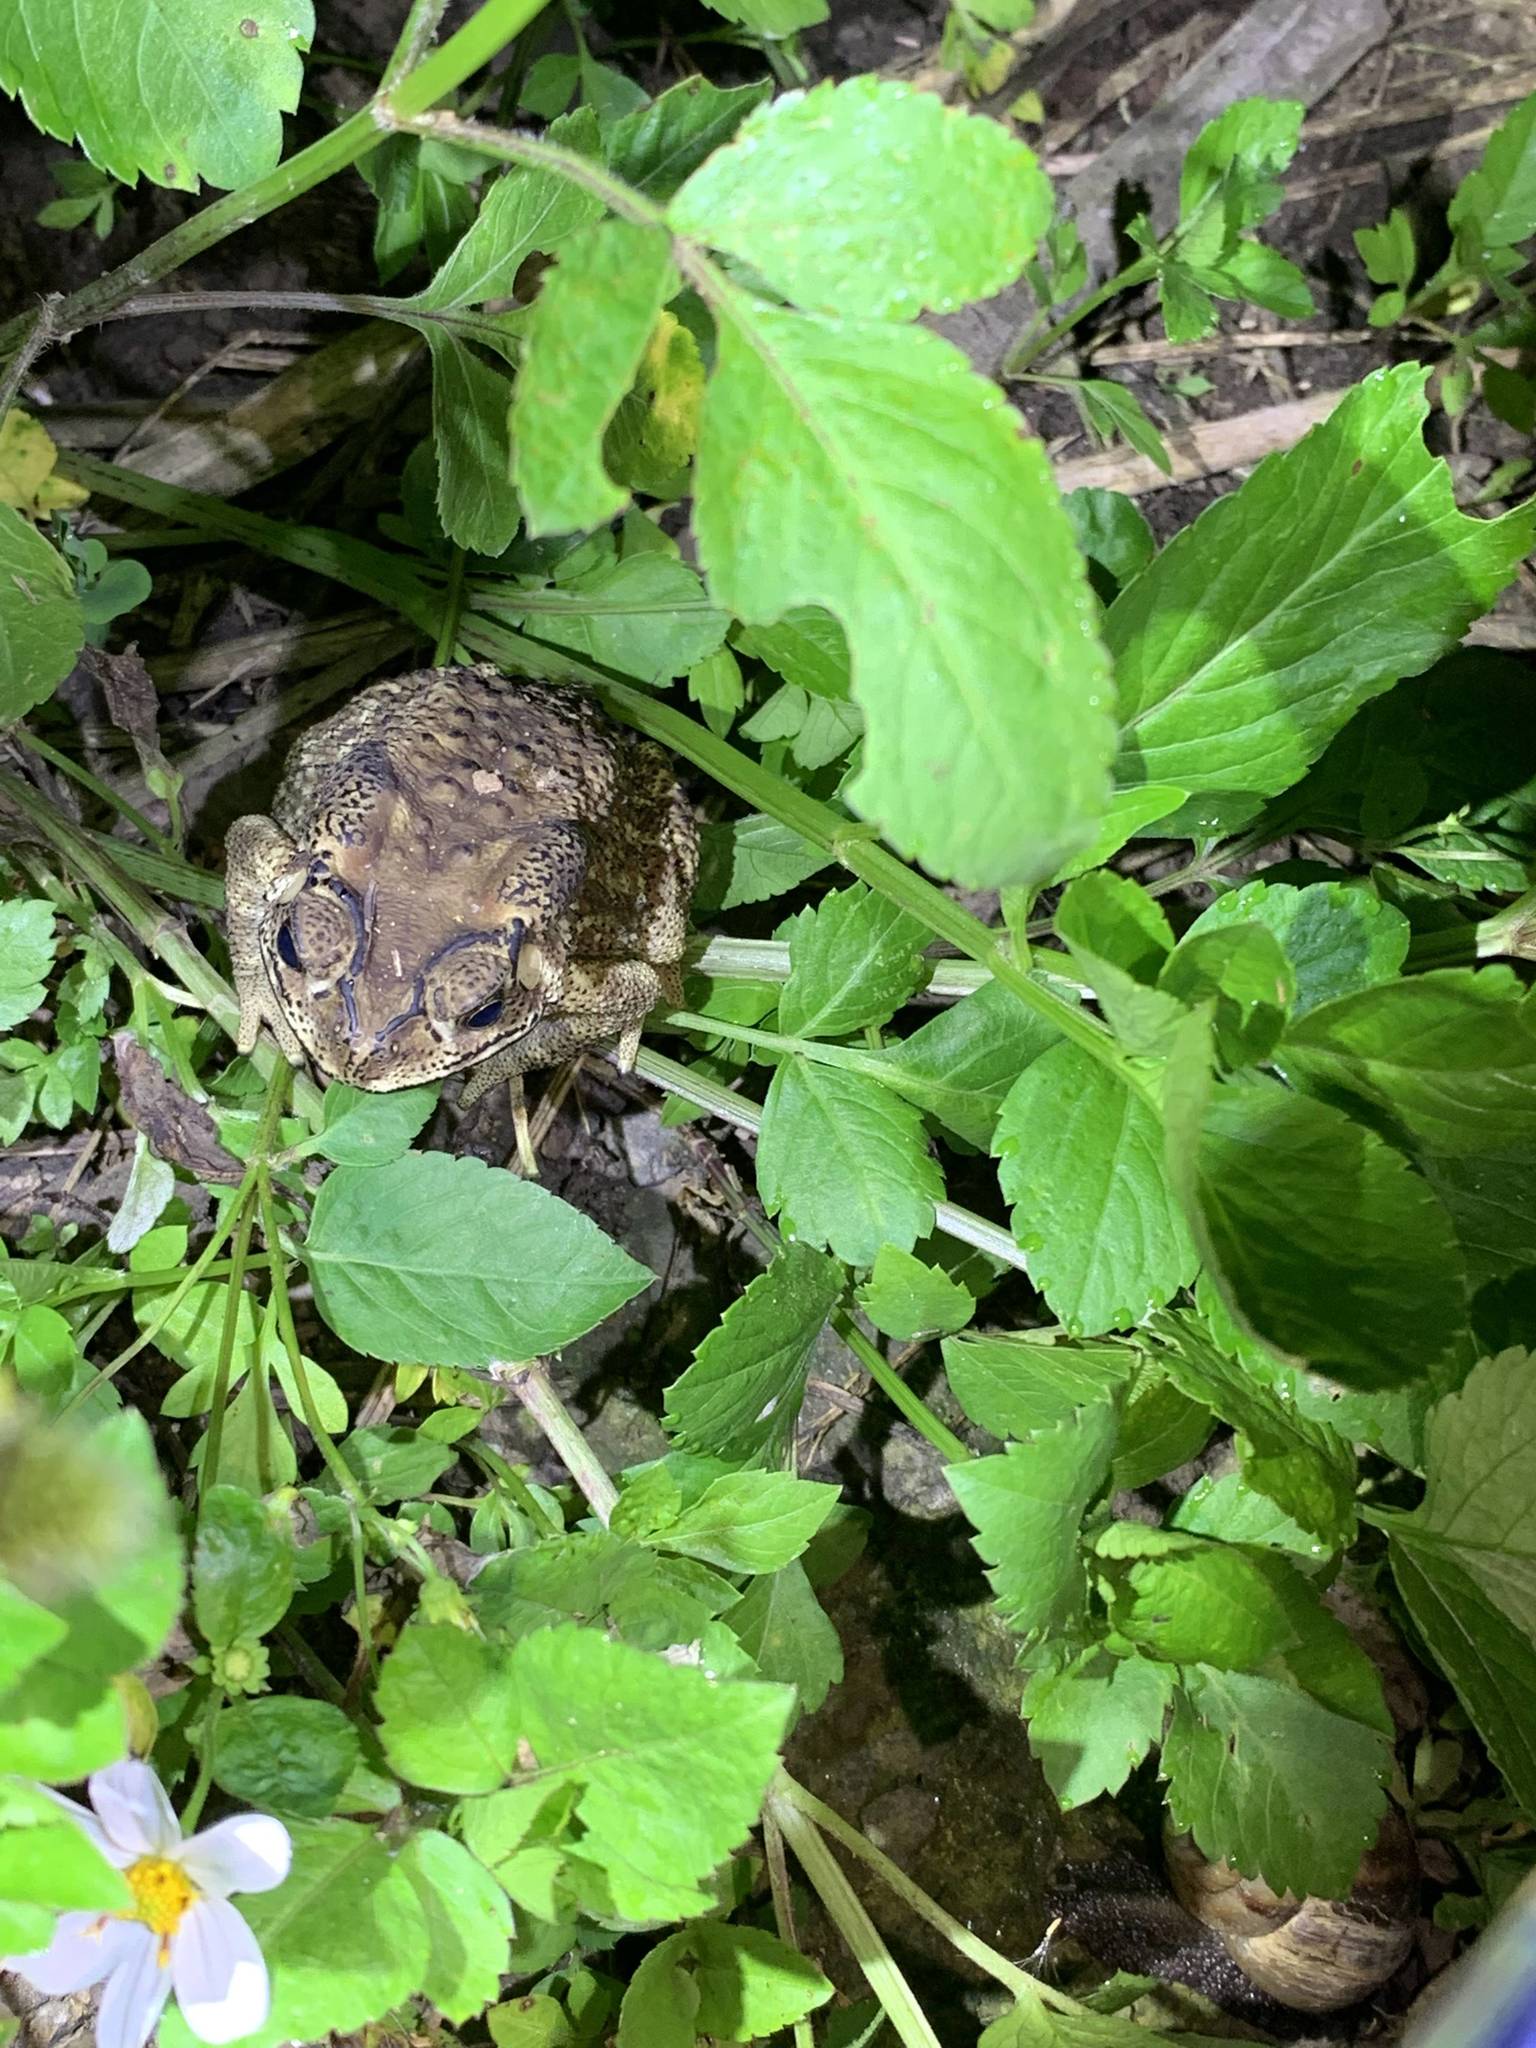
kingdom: Animalia
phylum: Chordata
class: Amphibia
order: Anura
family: Bufonidae
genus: Duttaphrynus
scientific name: Duttaphrynus melanostictus
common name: Common sunda toad
